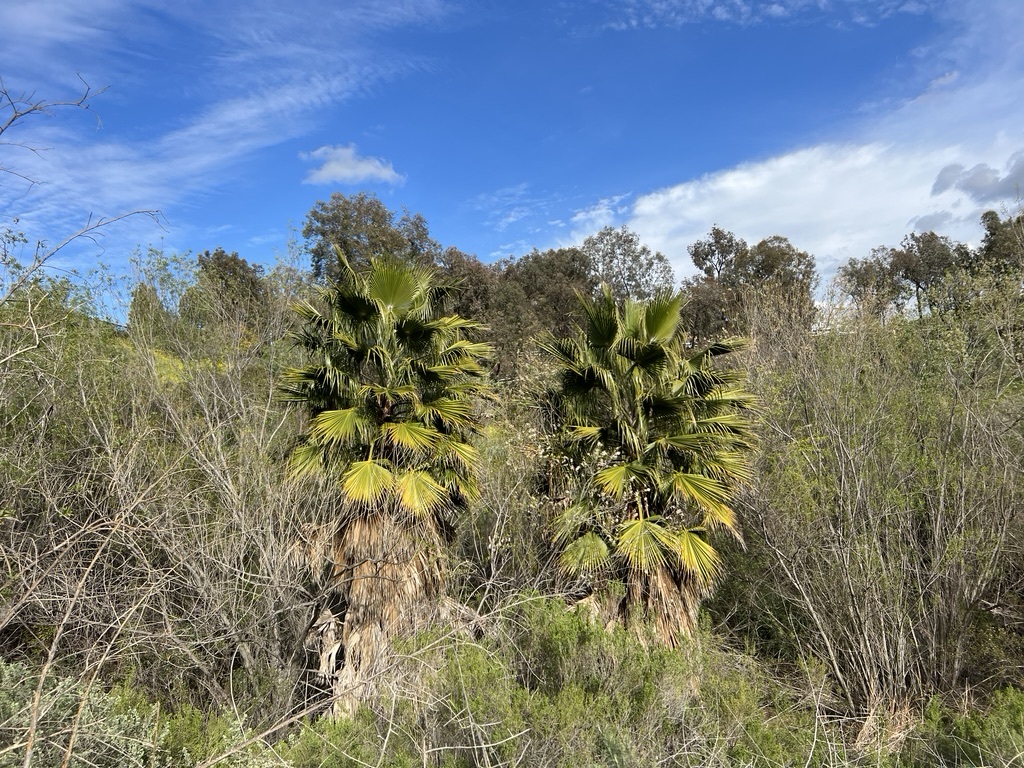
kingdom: Plantae
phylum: Tracheophyta
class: Liliopsida
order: Arecales
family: Arecaceae
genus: Washingtonia
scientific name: Washingtonia robusta
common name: Mexican fan palm
